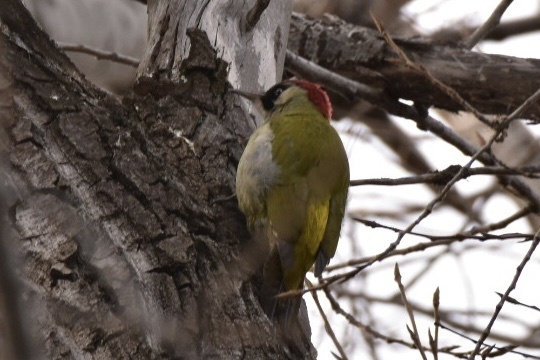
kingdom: Animalia
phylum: Chordata
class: Aves
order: Piciformes
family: Picidae
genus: Picus
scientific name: Picus viridis
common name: European green woodpecker
